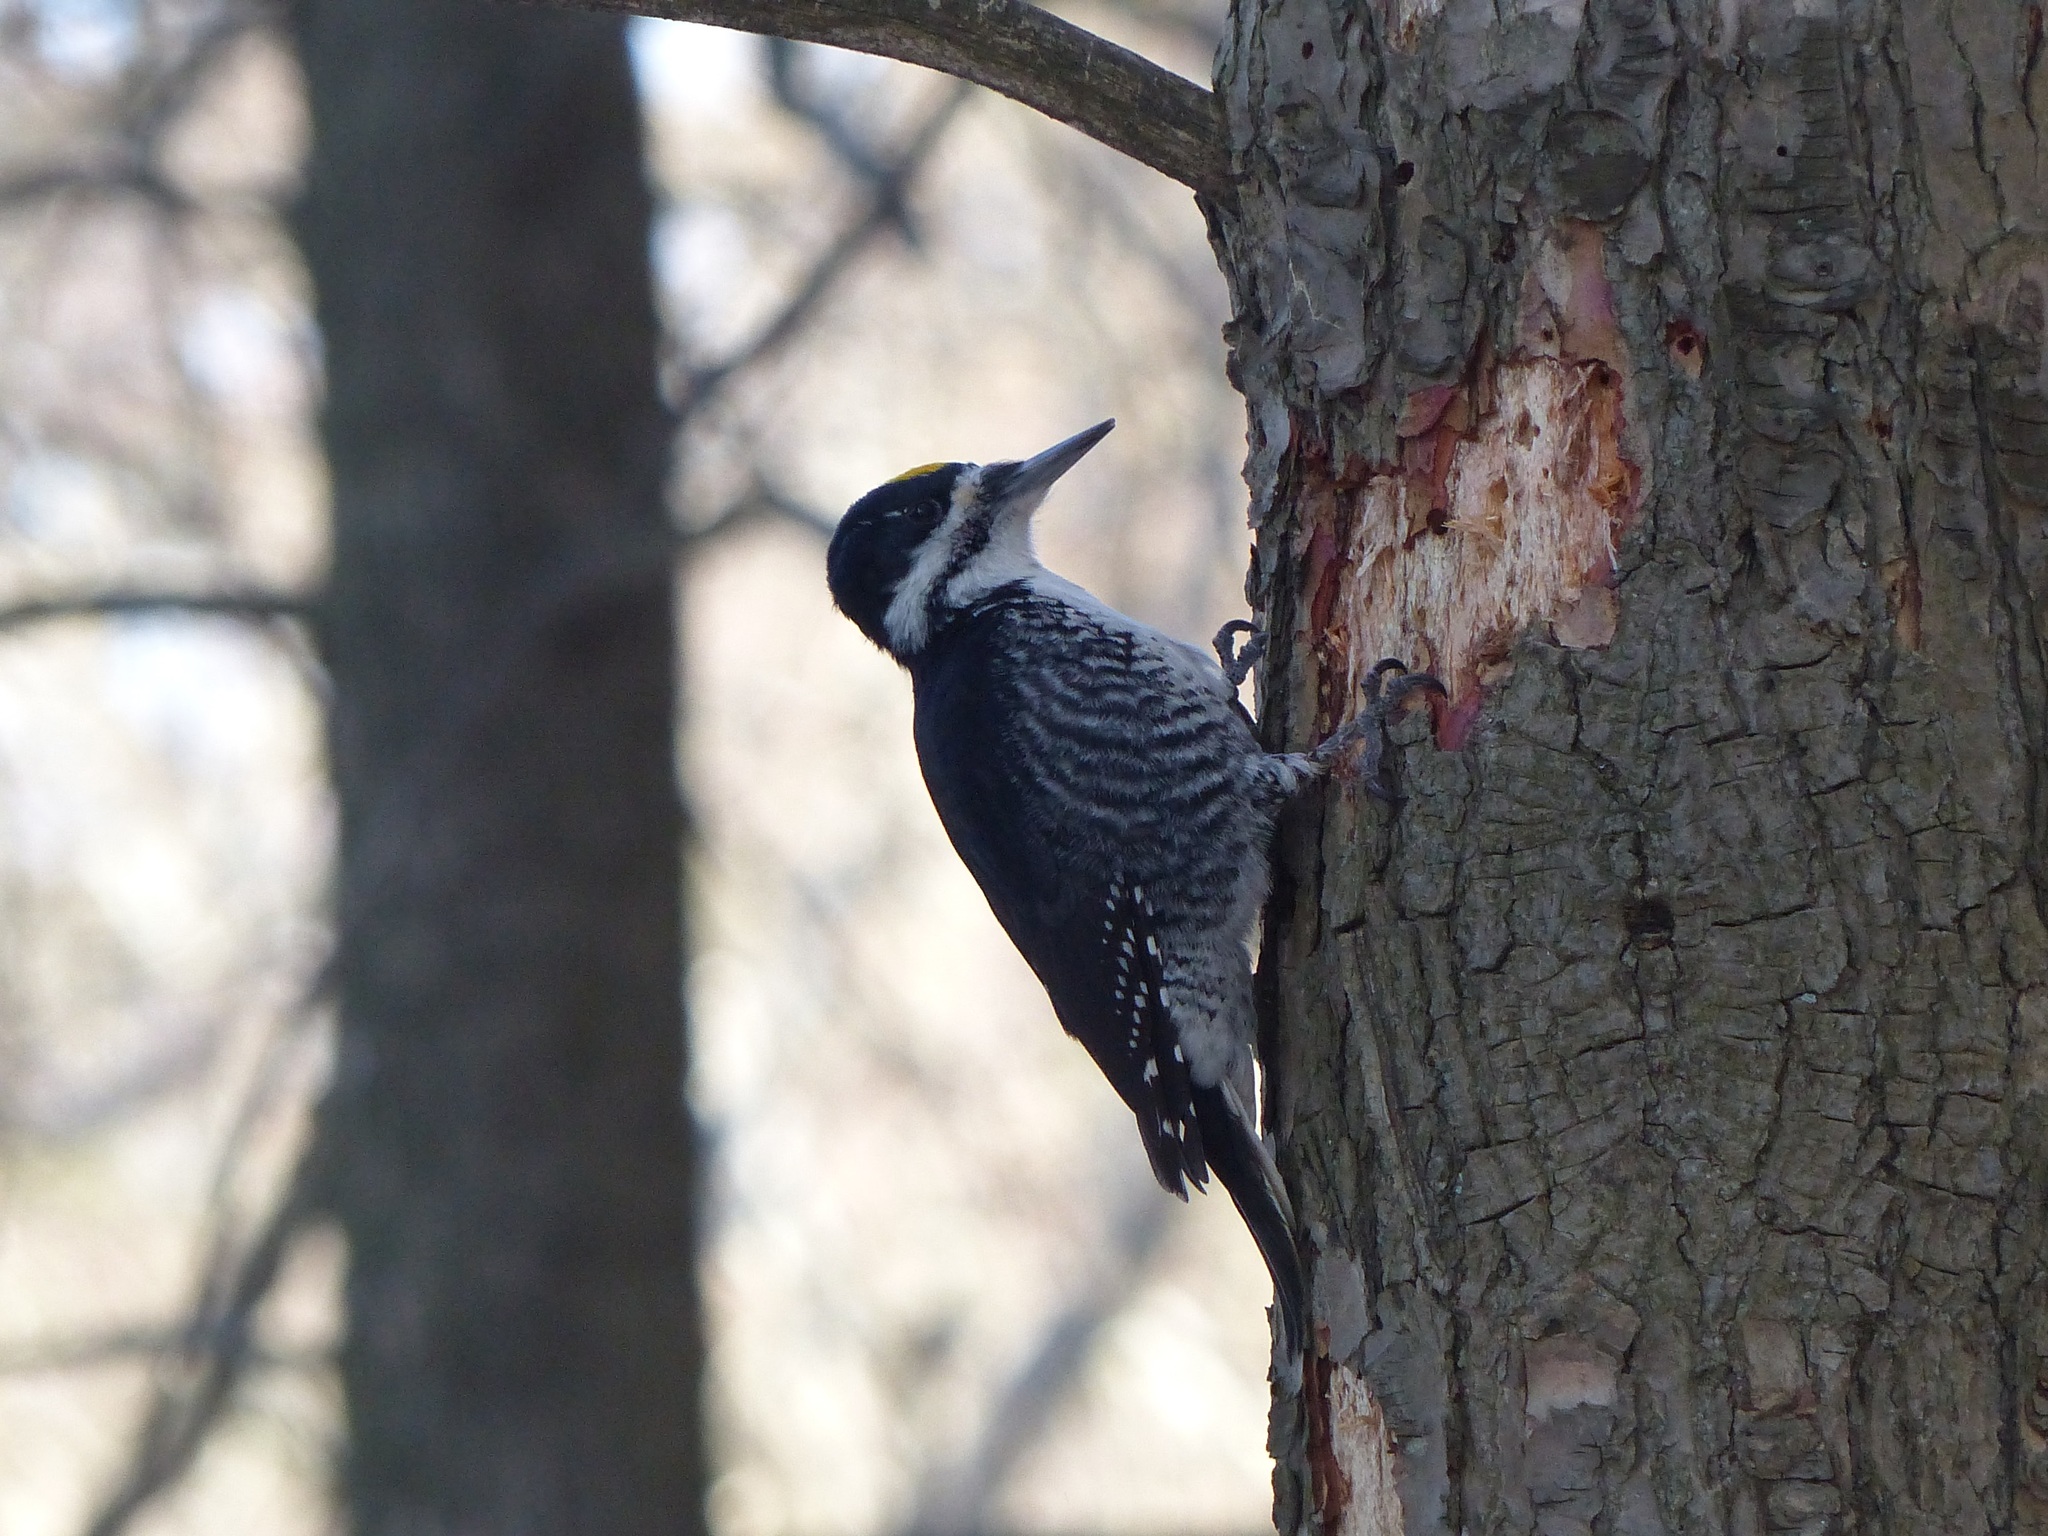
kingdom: Animalia
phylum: Chordata
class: Aves
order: Piciformes
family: Picidae
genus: Picoides
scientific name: Picoides arcticus
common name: Black-backed woodpecker
